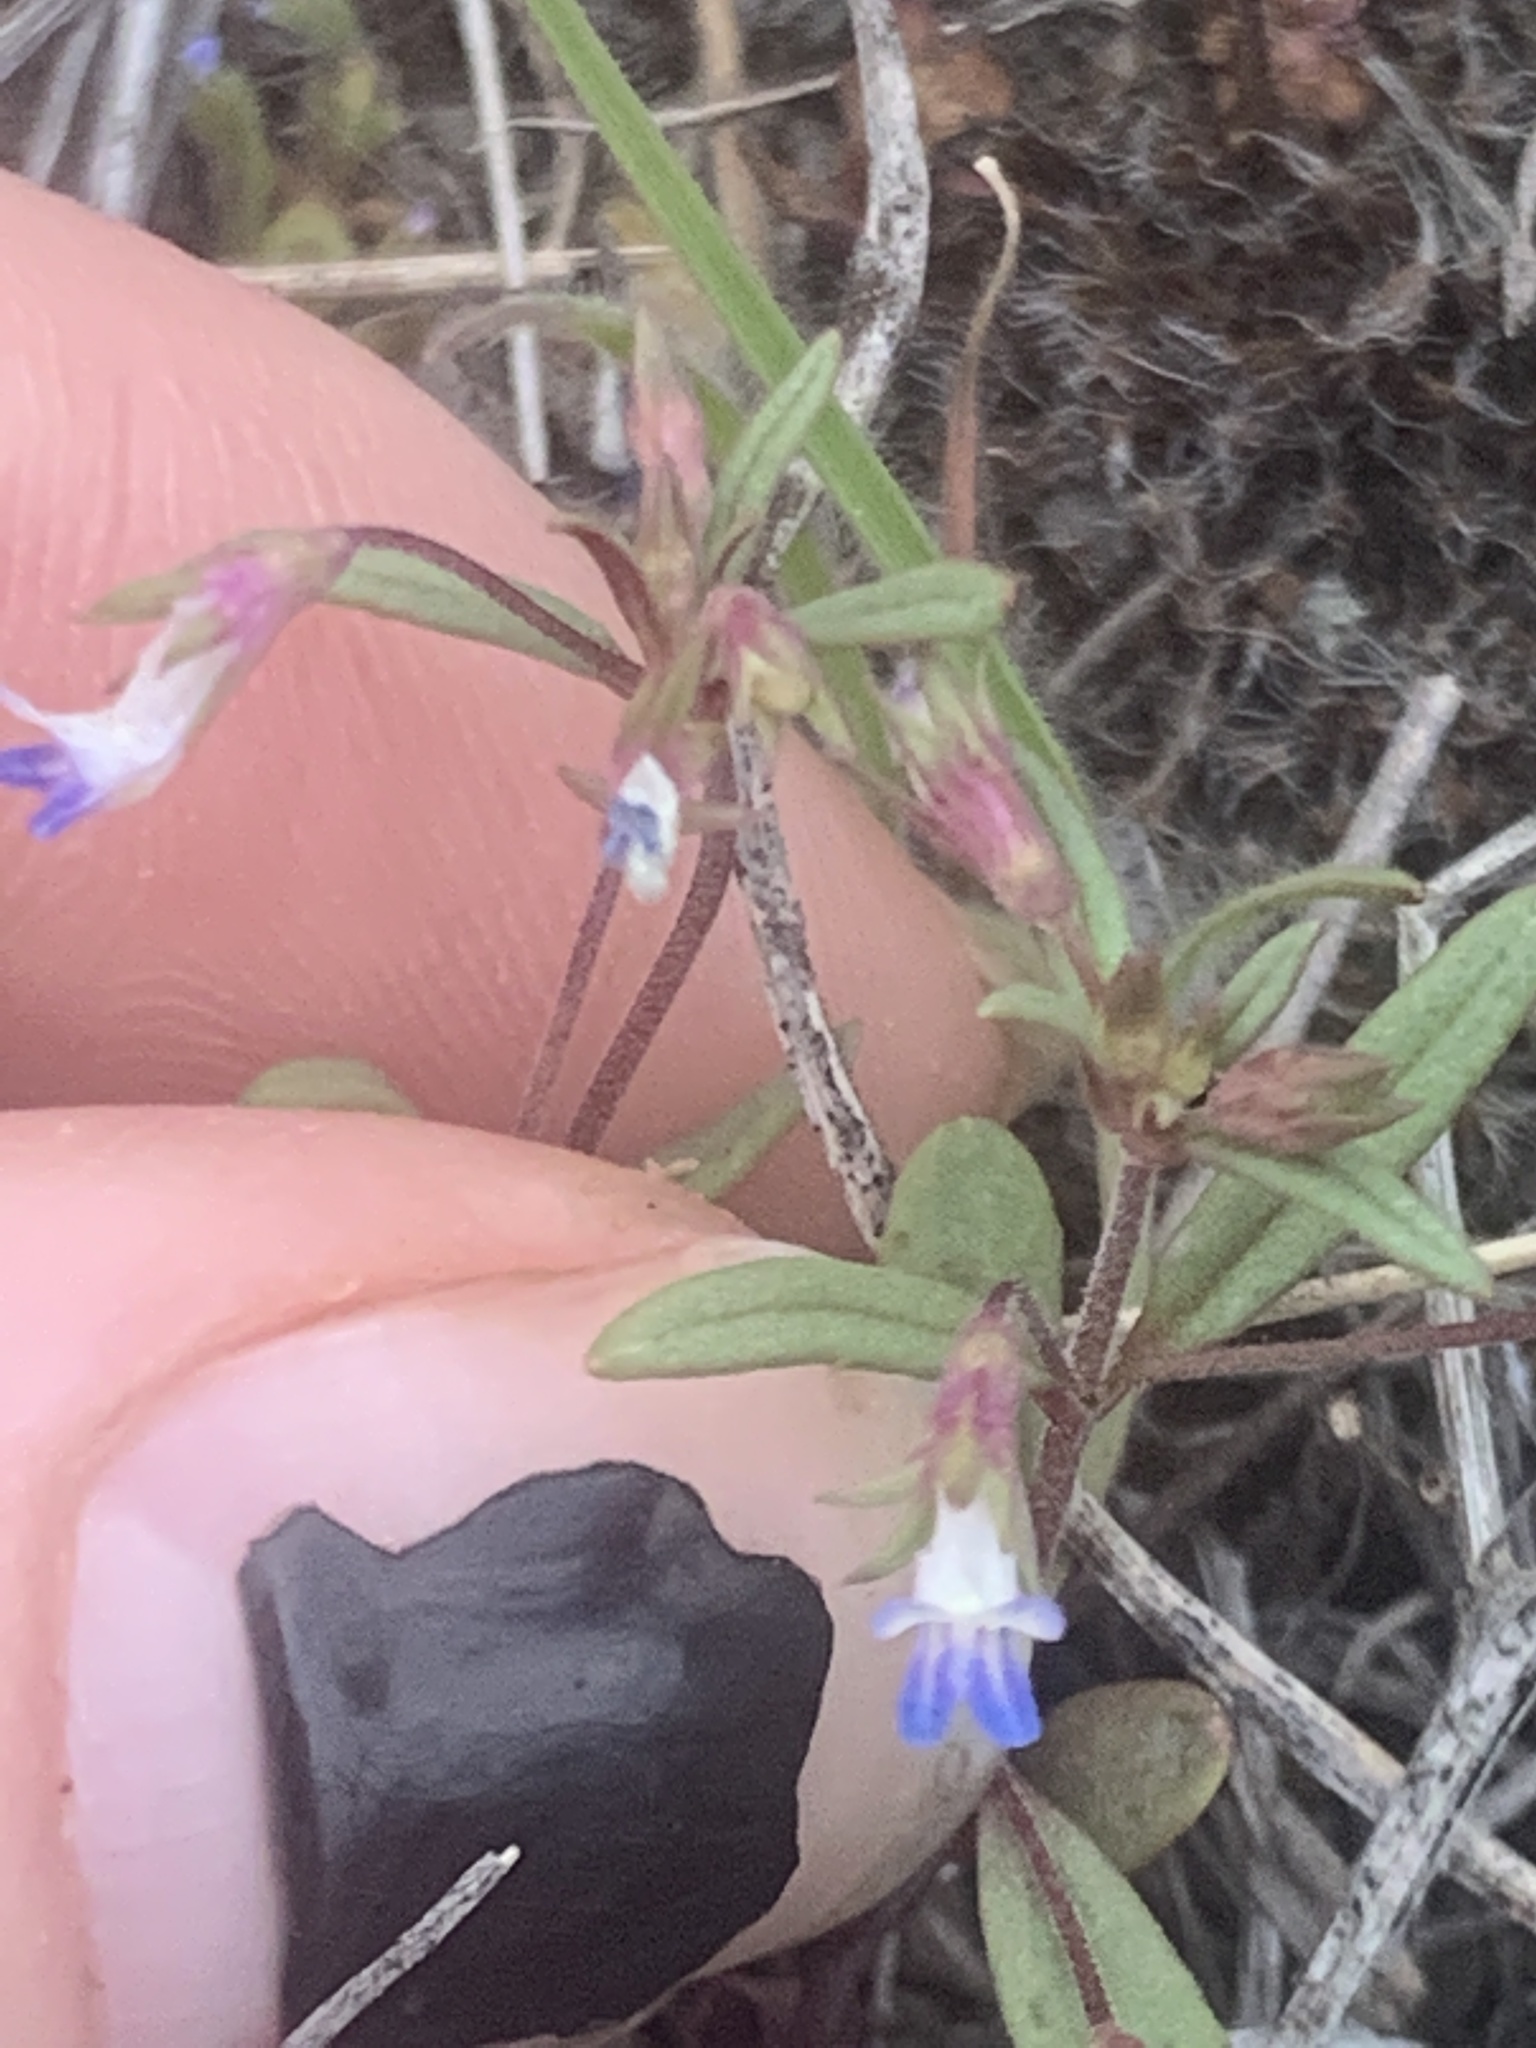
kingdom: Plantae
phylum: Tracheophyta
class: Magnoliopsida
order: Lamiales
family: Plantaginaceae
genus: Collinsia
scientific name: Collinsia parviflora
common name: Blue-lips
